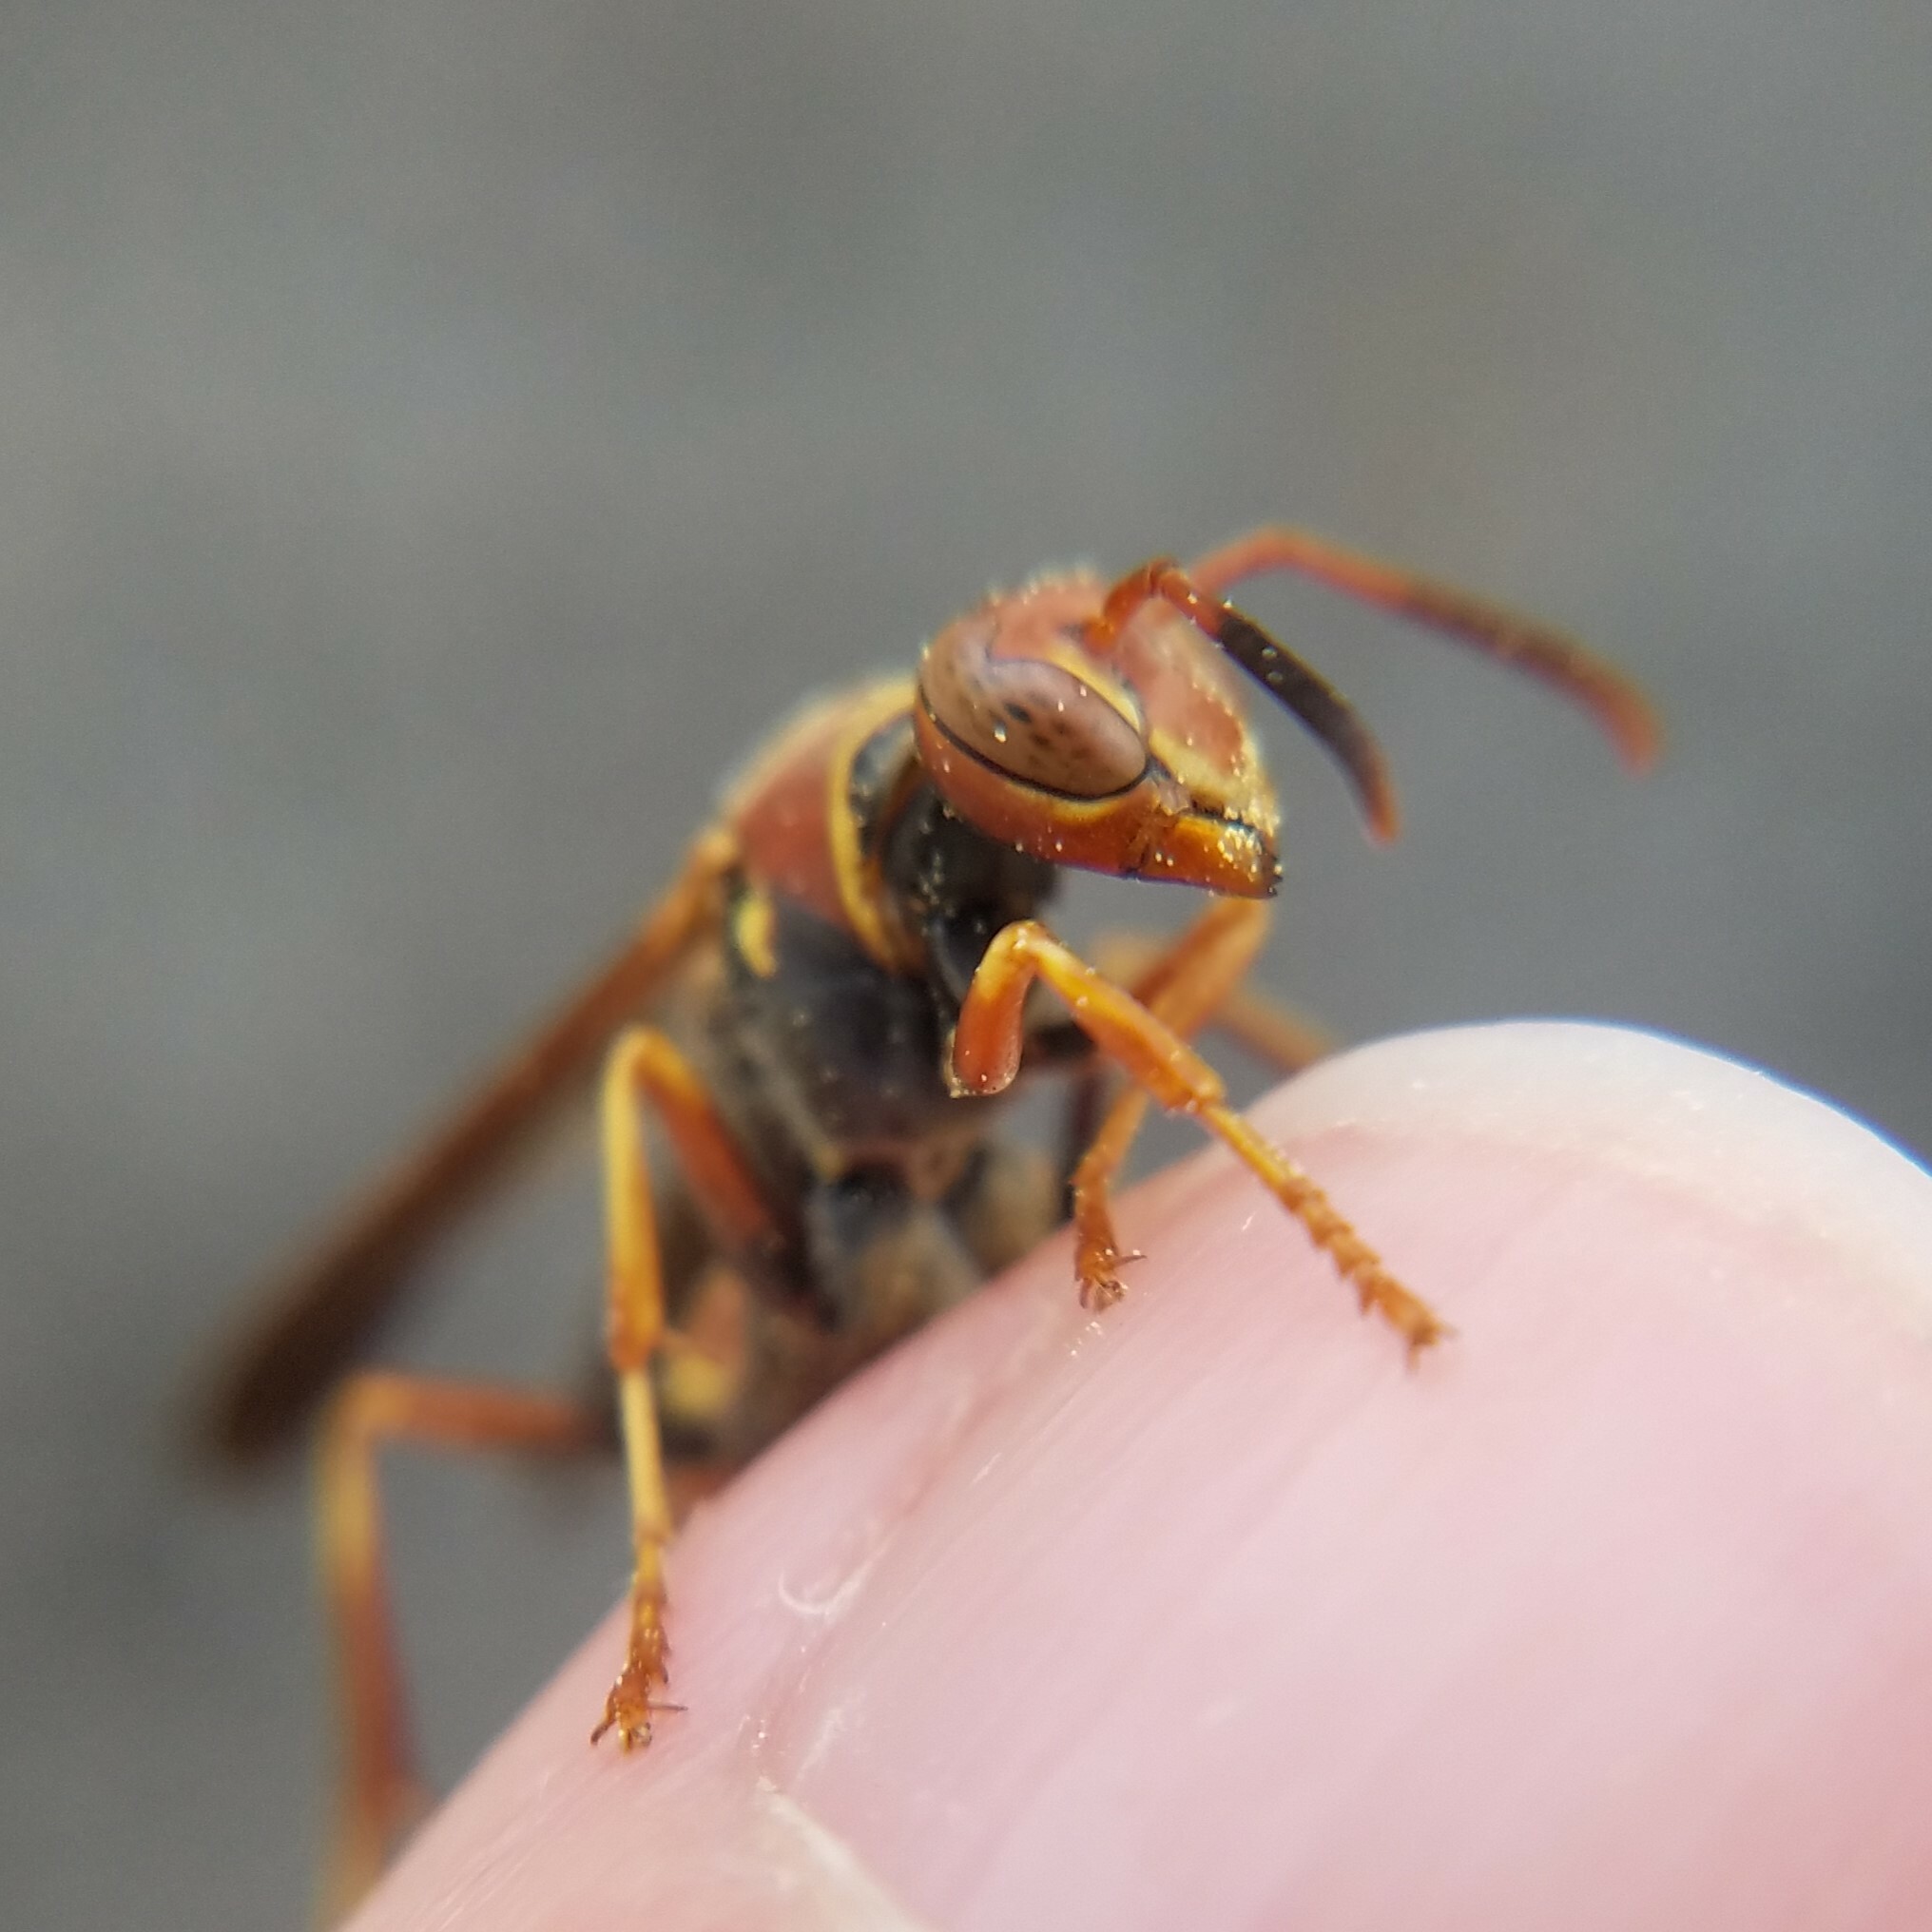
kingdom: Animalia
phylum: Arthropoda
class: Insecta
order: Hymenoptera
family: Eumenidae
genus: Polistes
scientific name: Polistes dorsalis
